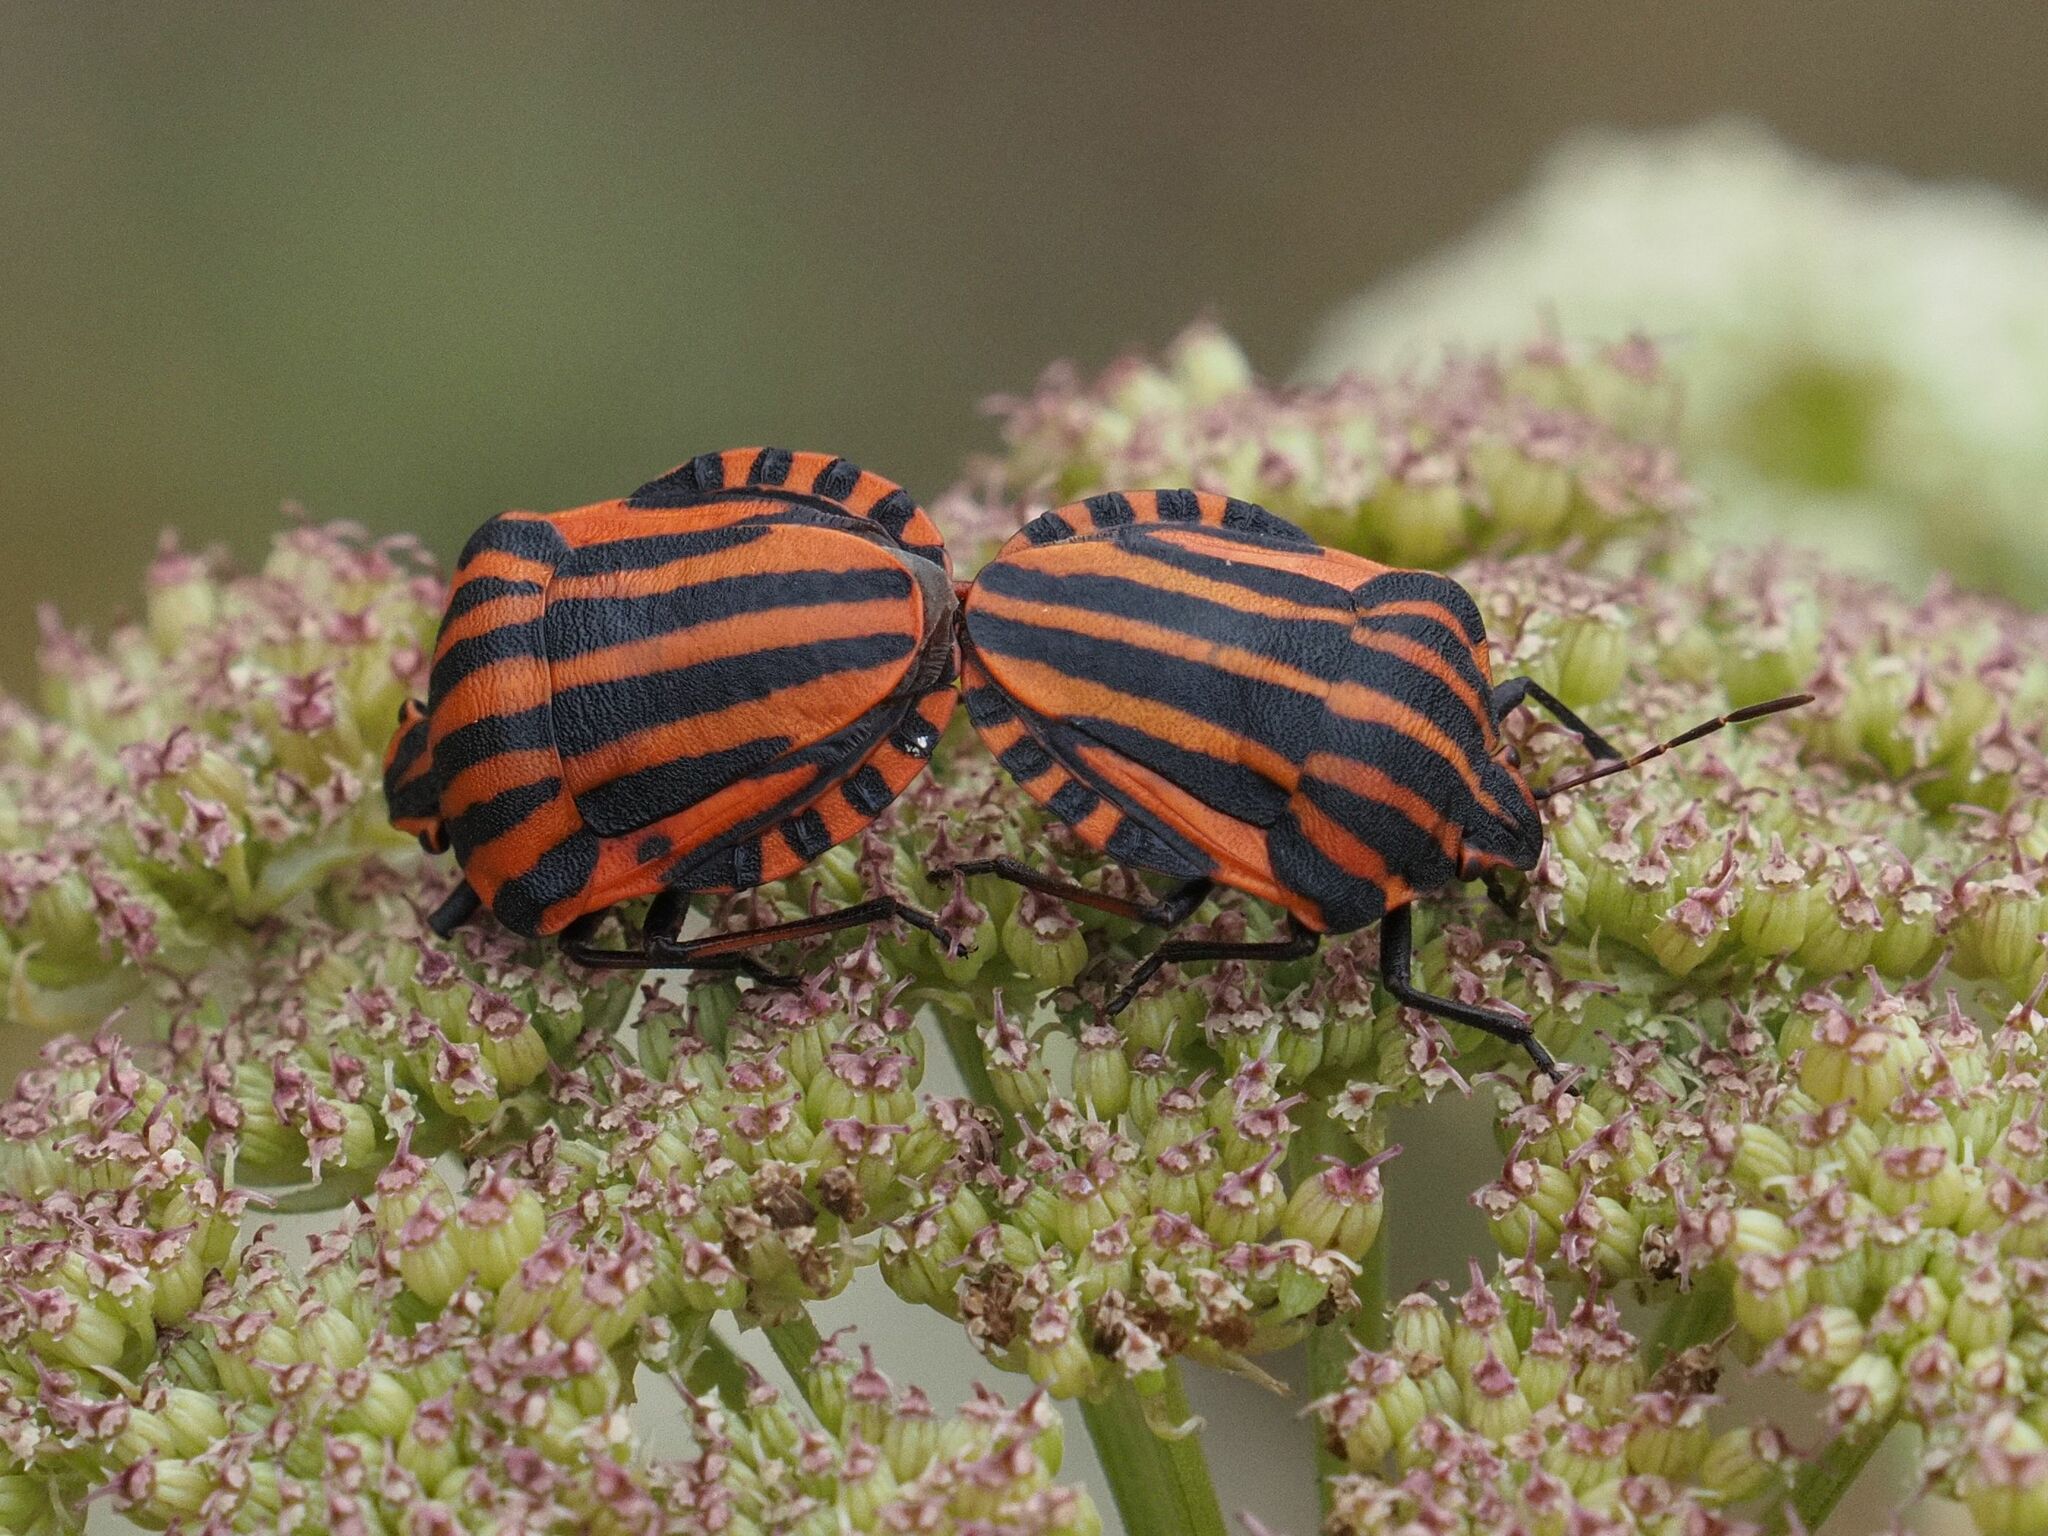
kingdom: Animalia
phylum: Arthropoda
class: Insecta
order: Hemiptera
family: Pentatomidae
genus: Graphosoma
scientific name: Graphosoma italicum
